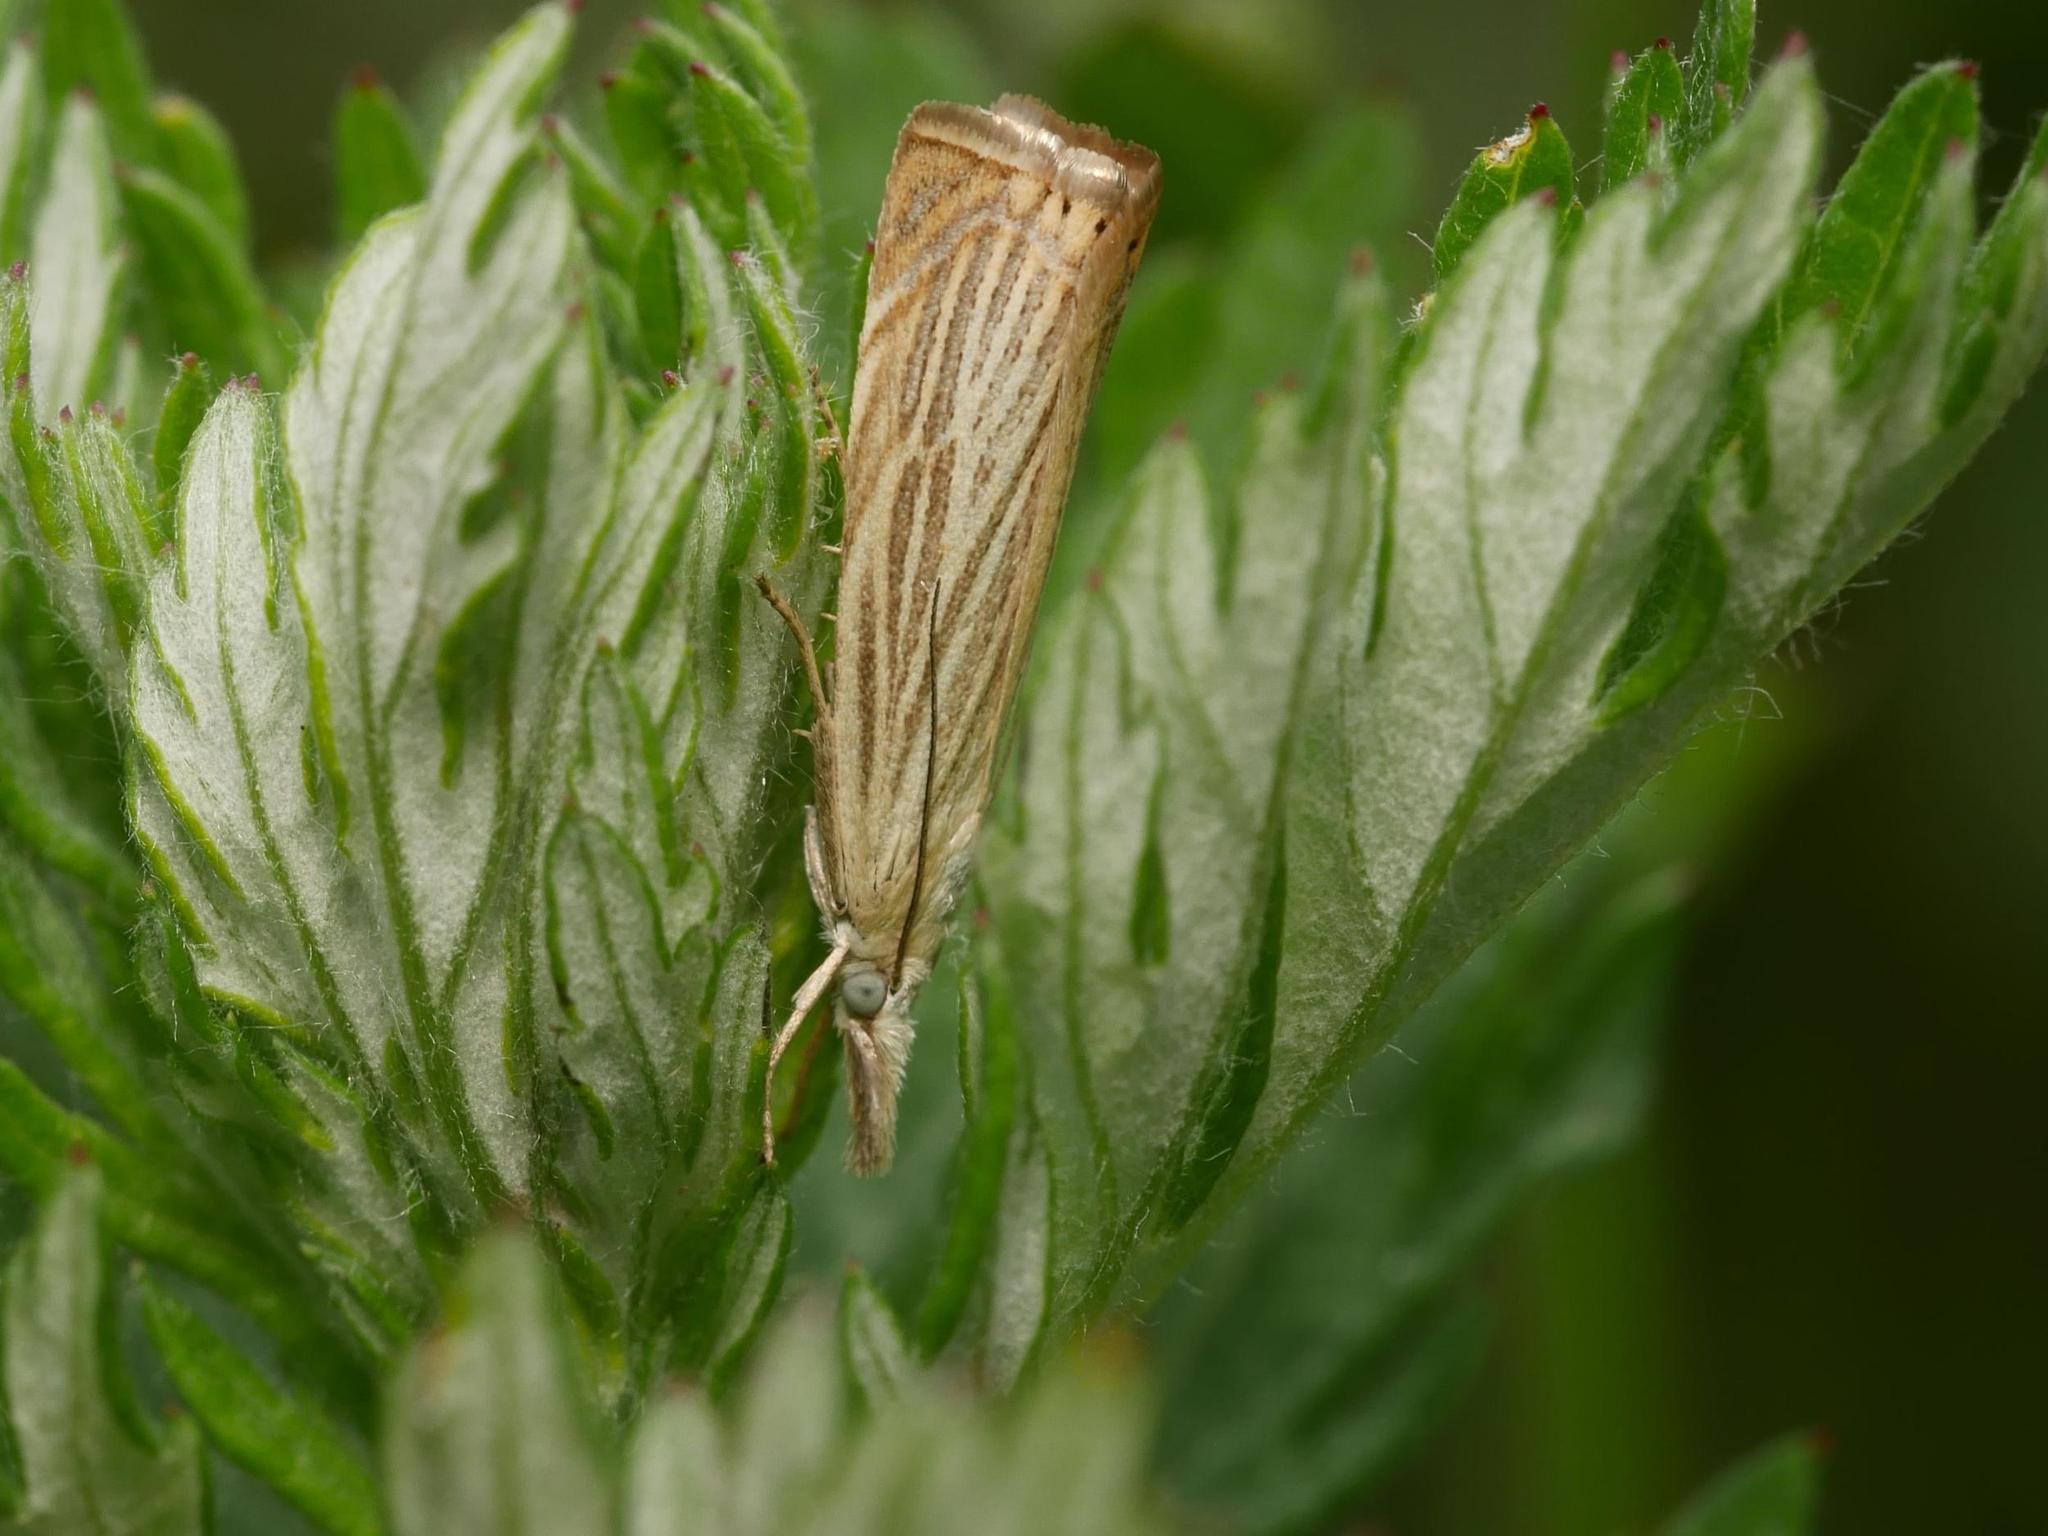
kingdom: Animalia
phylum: Arthropoda
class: Insecta
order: Lepidoptera
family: Crambidae
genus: Chrysoteuchia
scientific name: Chrysoteuchia culmella
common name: Garden grass-veneer
